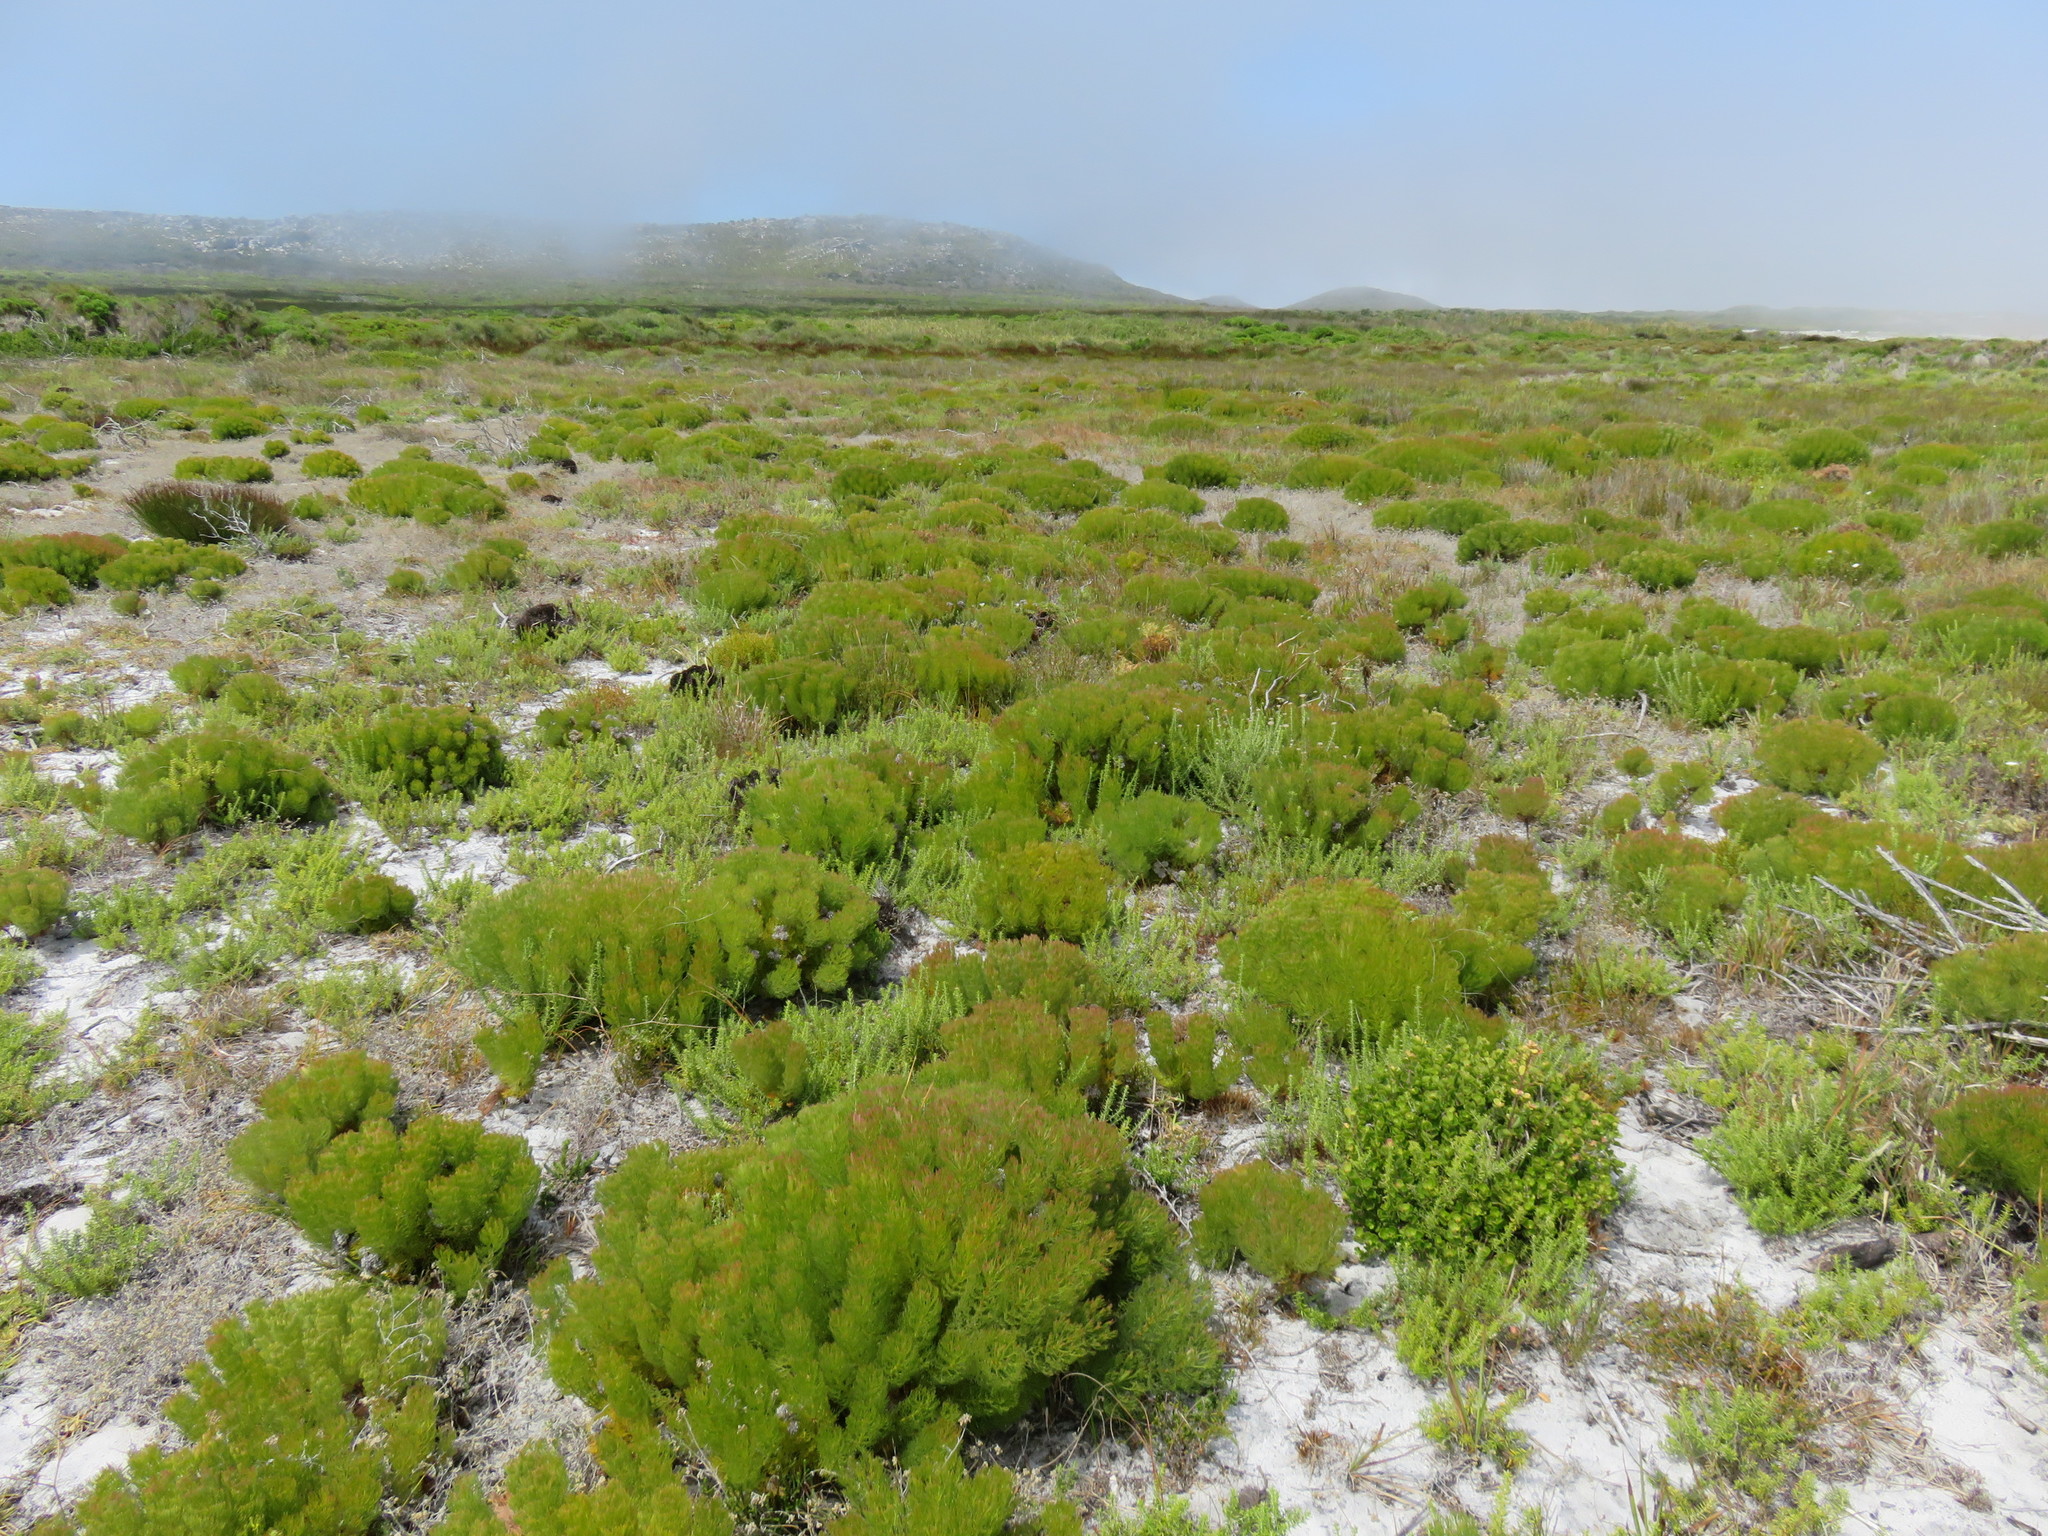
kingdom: Plantae
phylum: Tracheophyta
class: Magnoliopsida
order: Proteales
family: Proteaceae
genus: Serruria
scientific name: Serruria glomerata
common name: Cluster spiderhead
